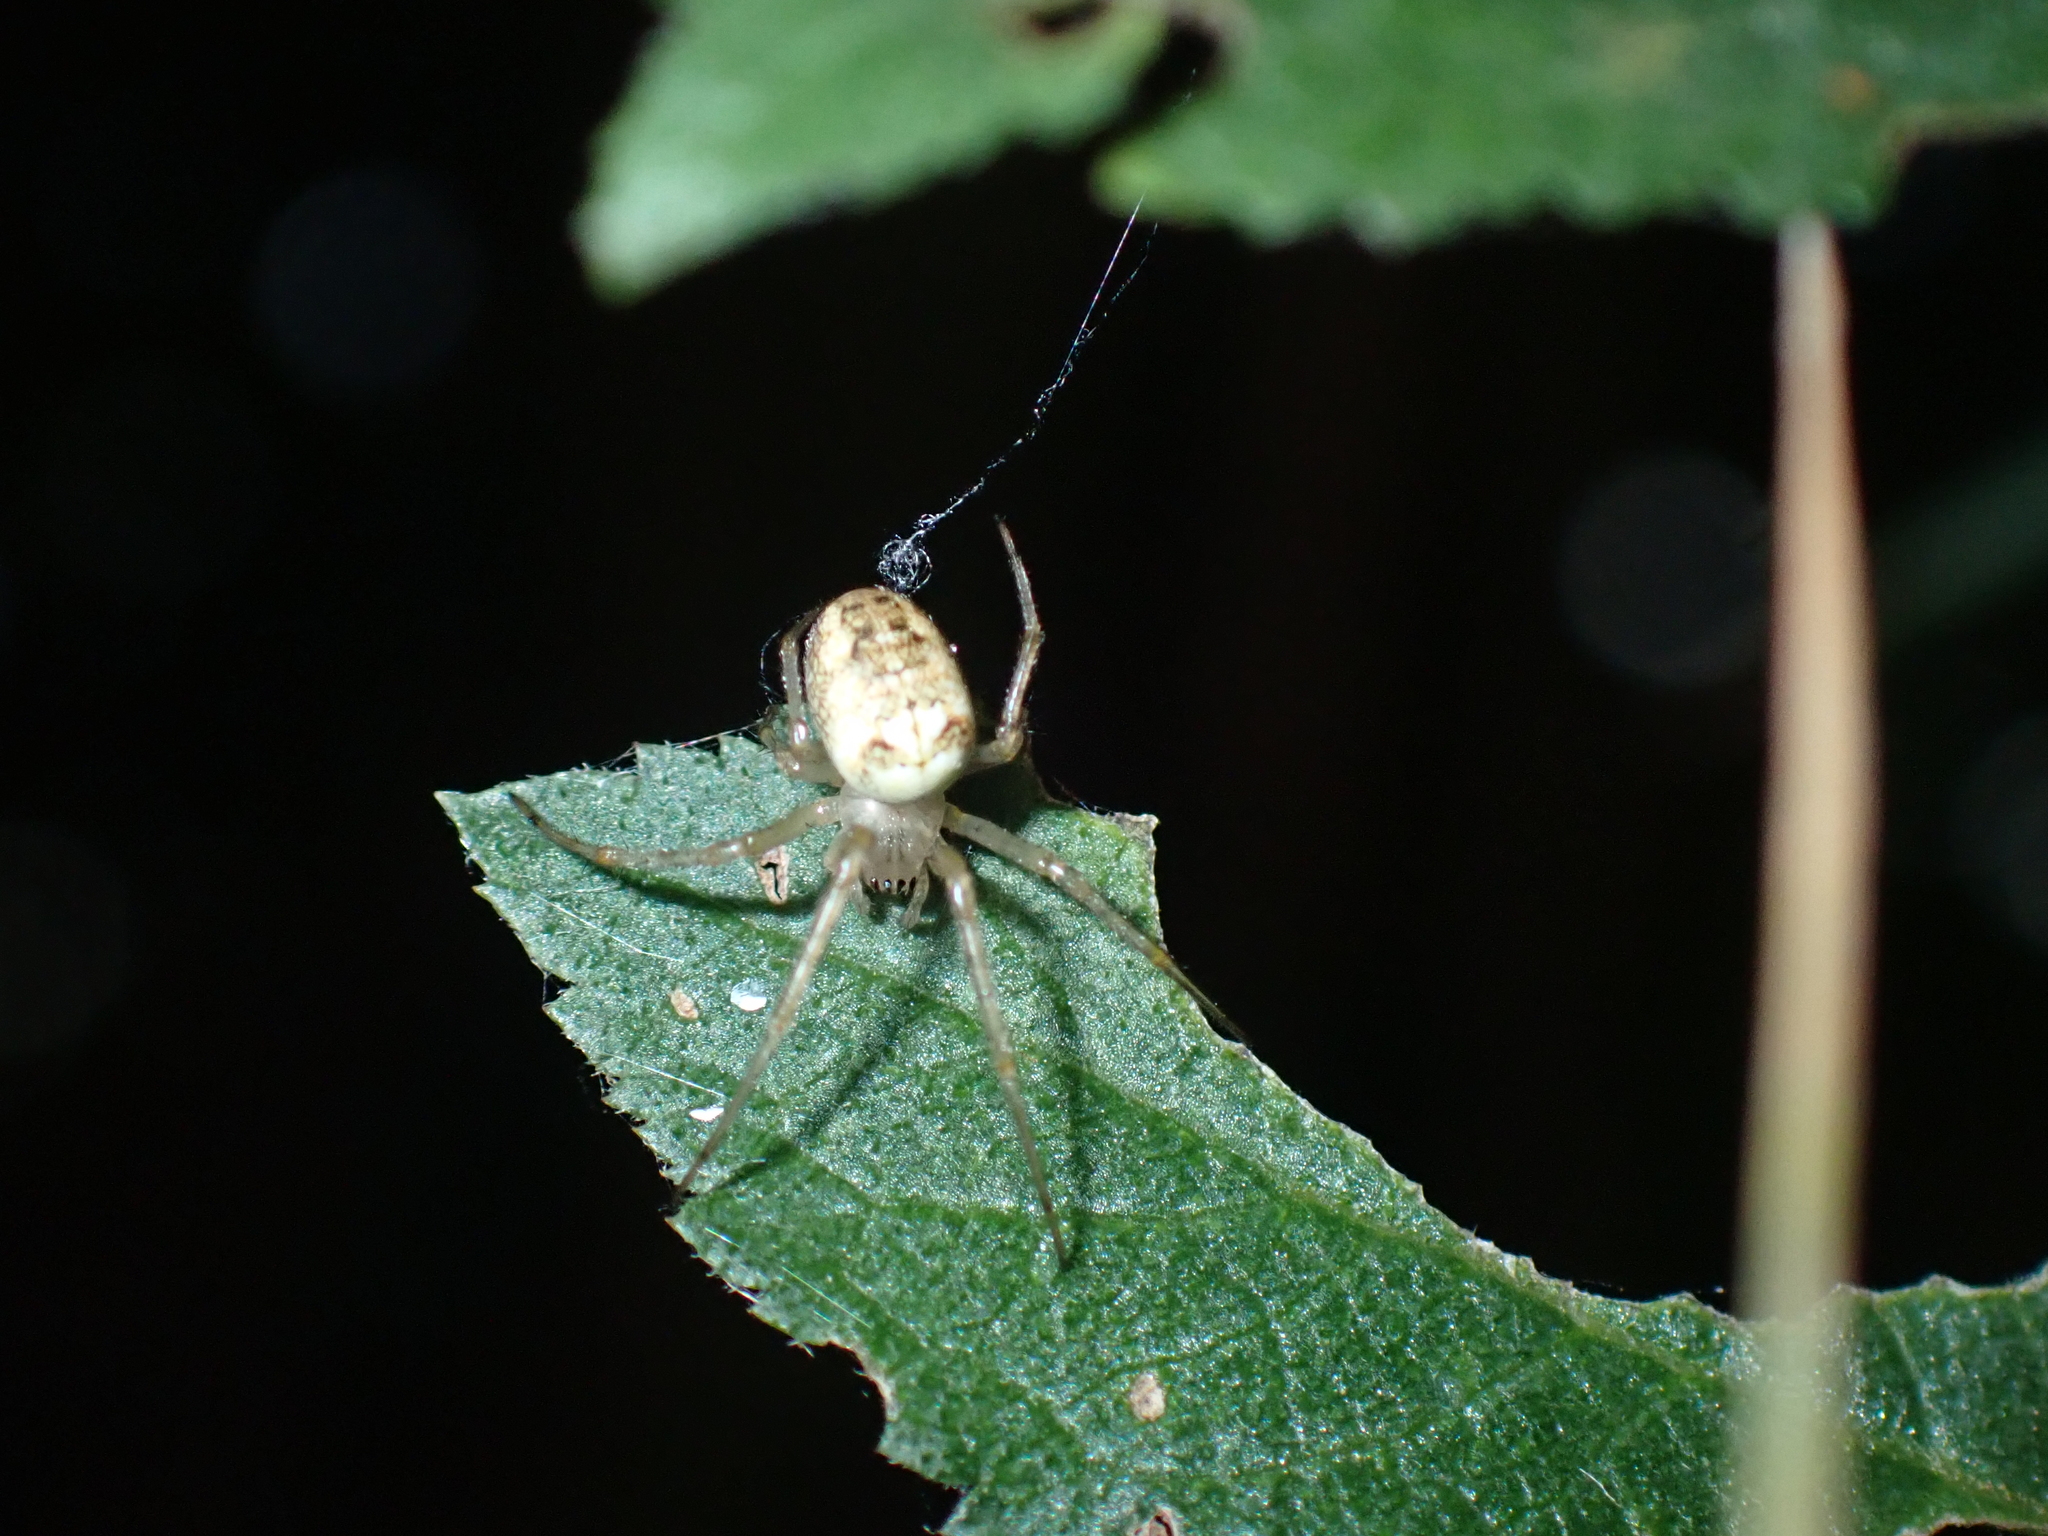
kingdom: Animalia
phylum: Arthropoda
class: Arachnida
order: Araneae
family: Tetragnathidae
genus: Metellina
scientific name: Metellina
